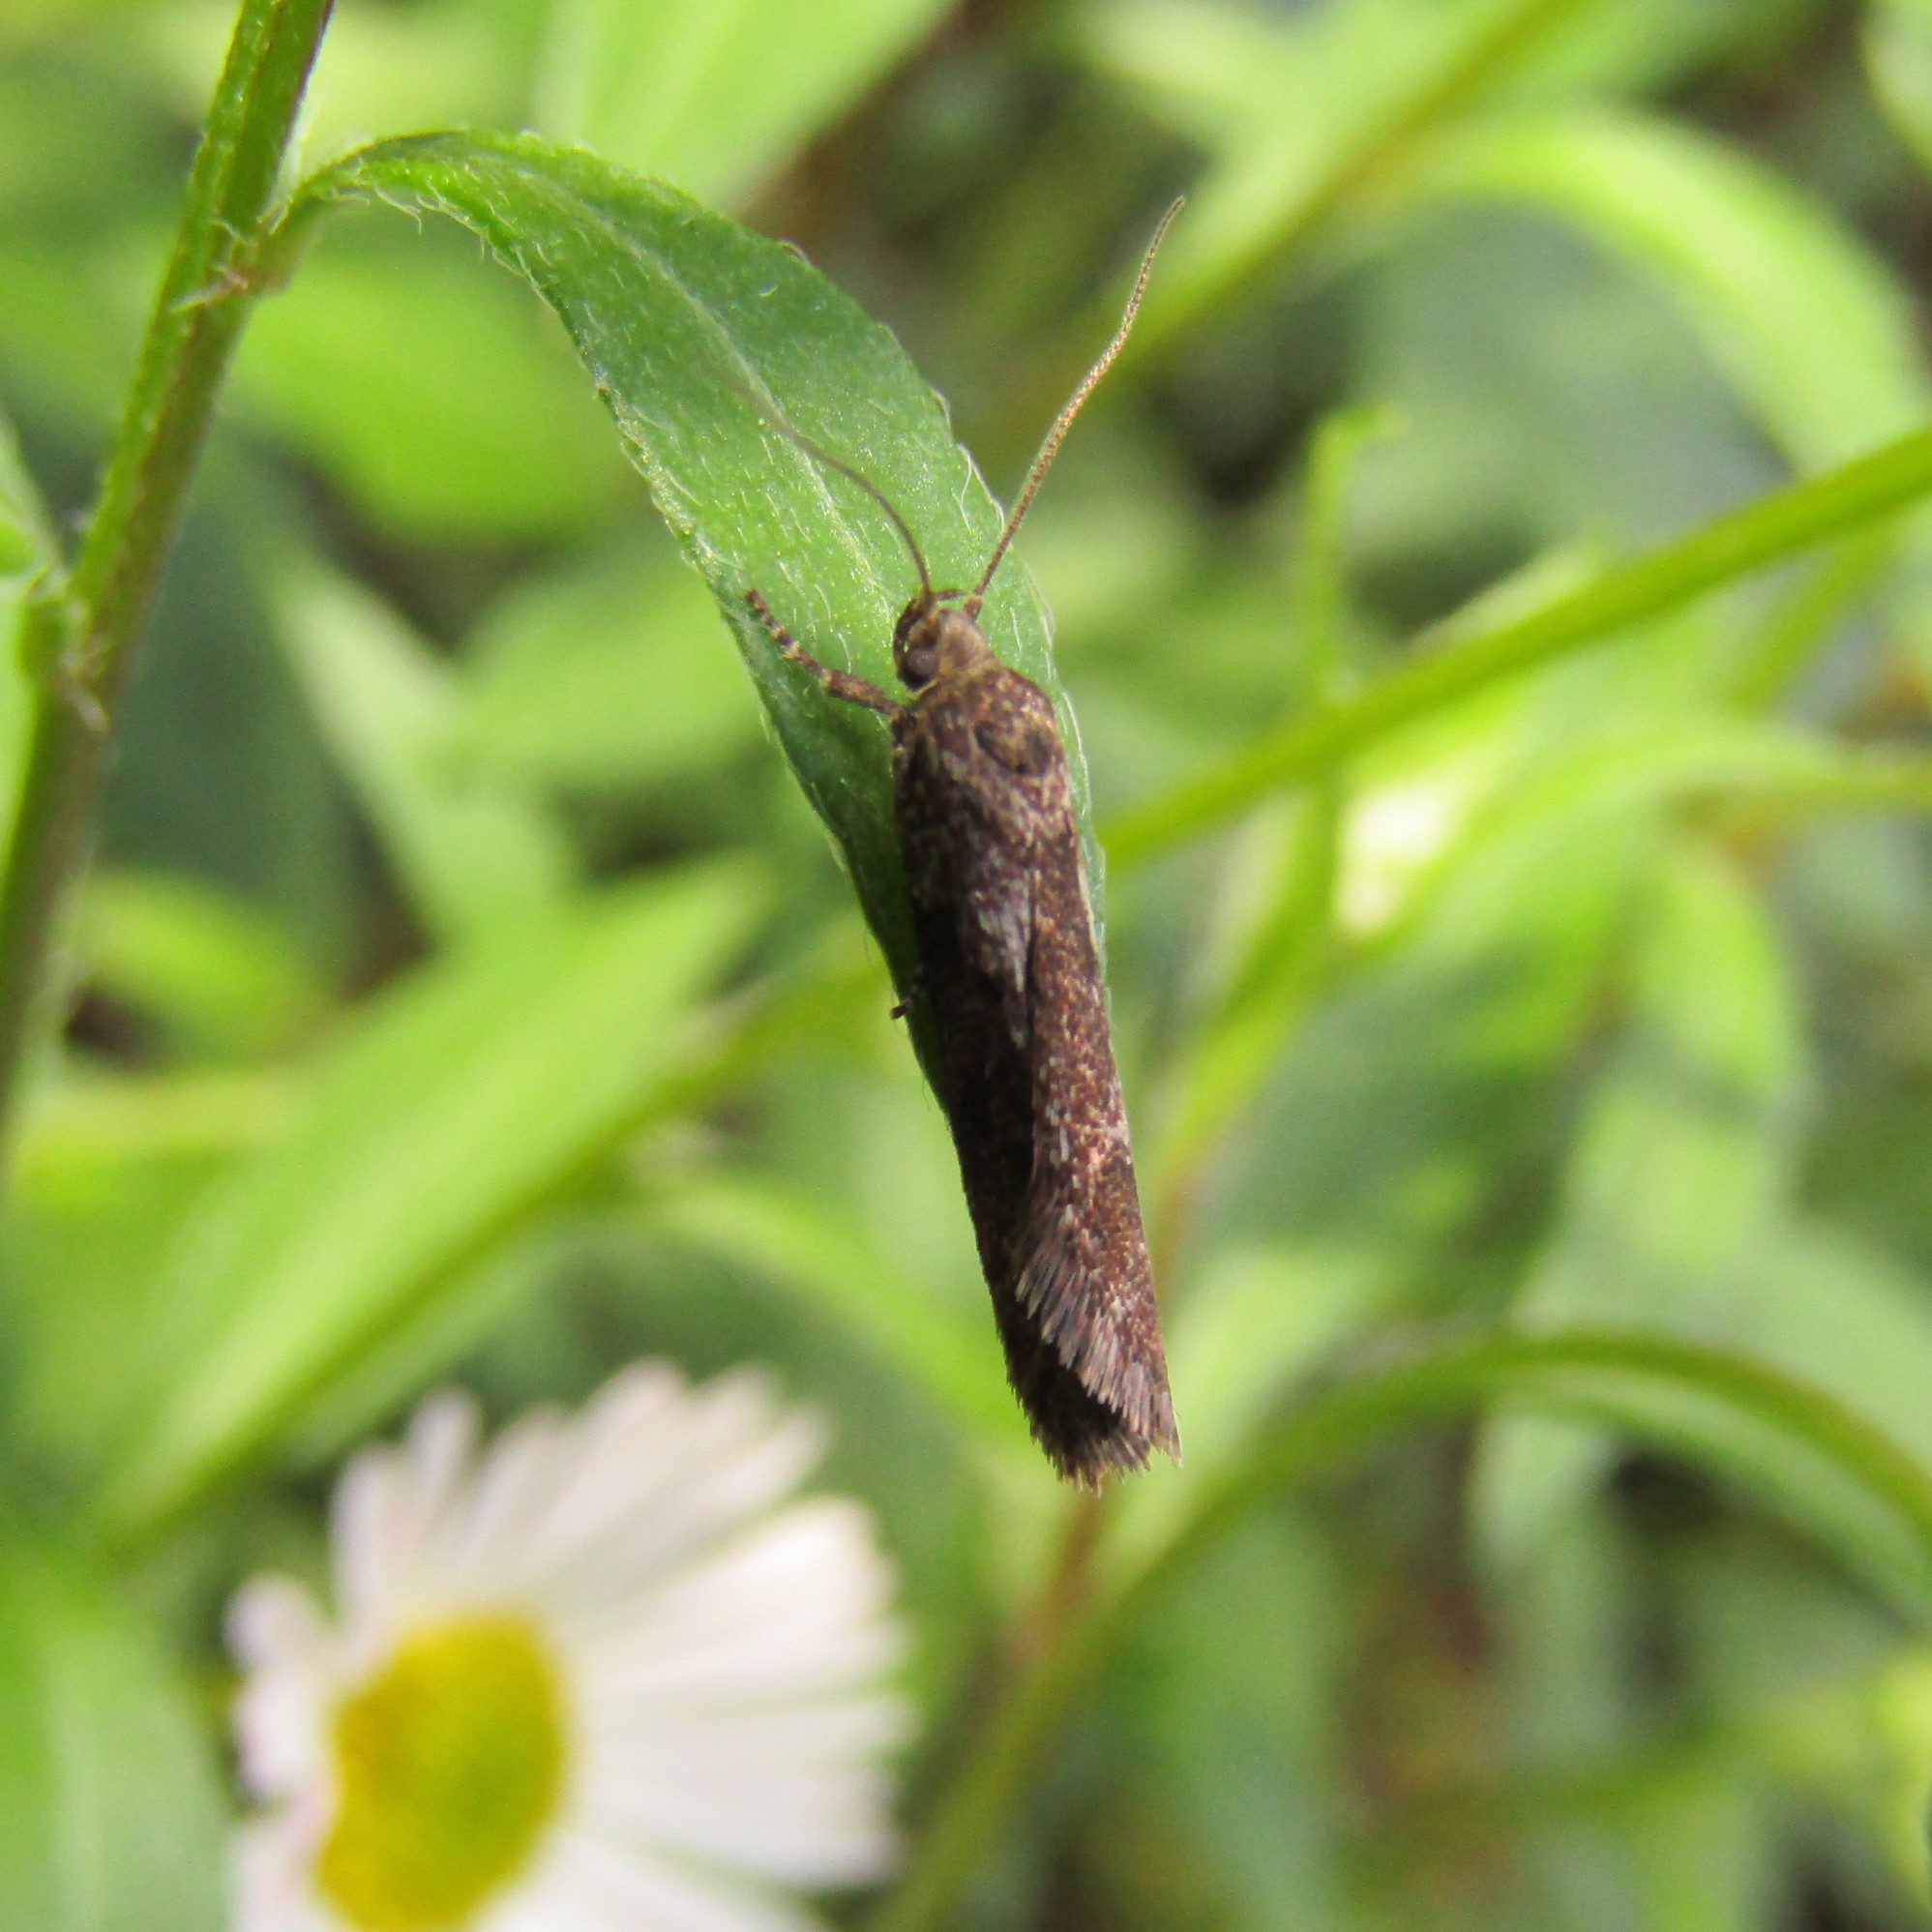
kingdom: Animalia
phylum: Arthropoda
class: Insecta
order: Lepidoptera
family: Oecophoridae
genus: Chersadaula
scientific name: Chersadaula ochrogastra
